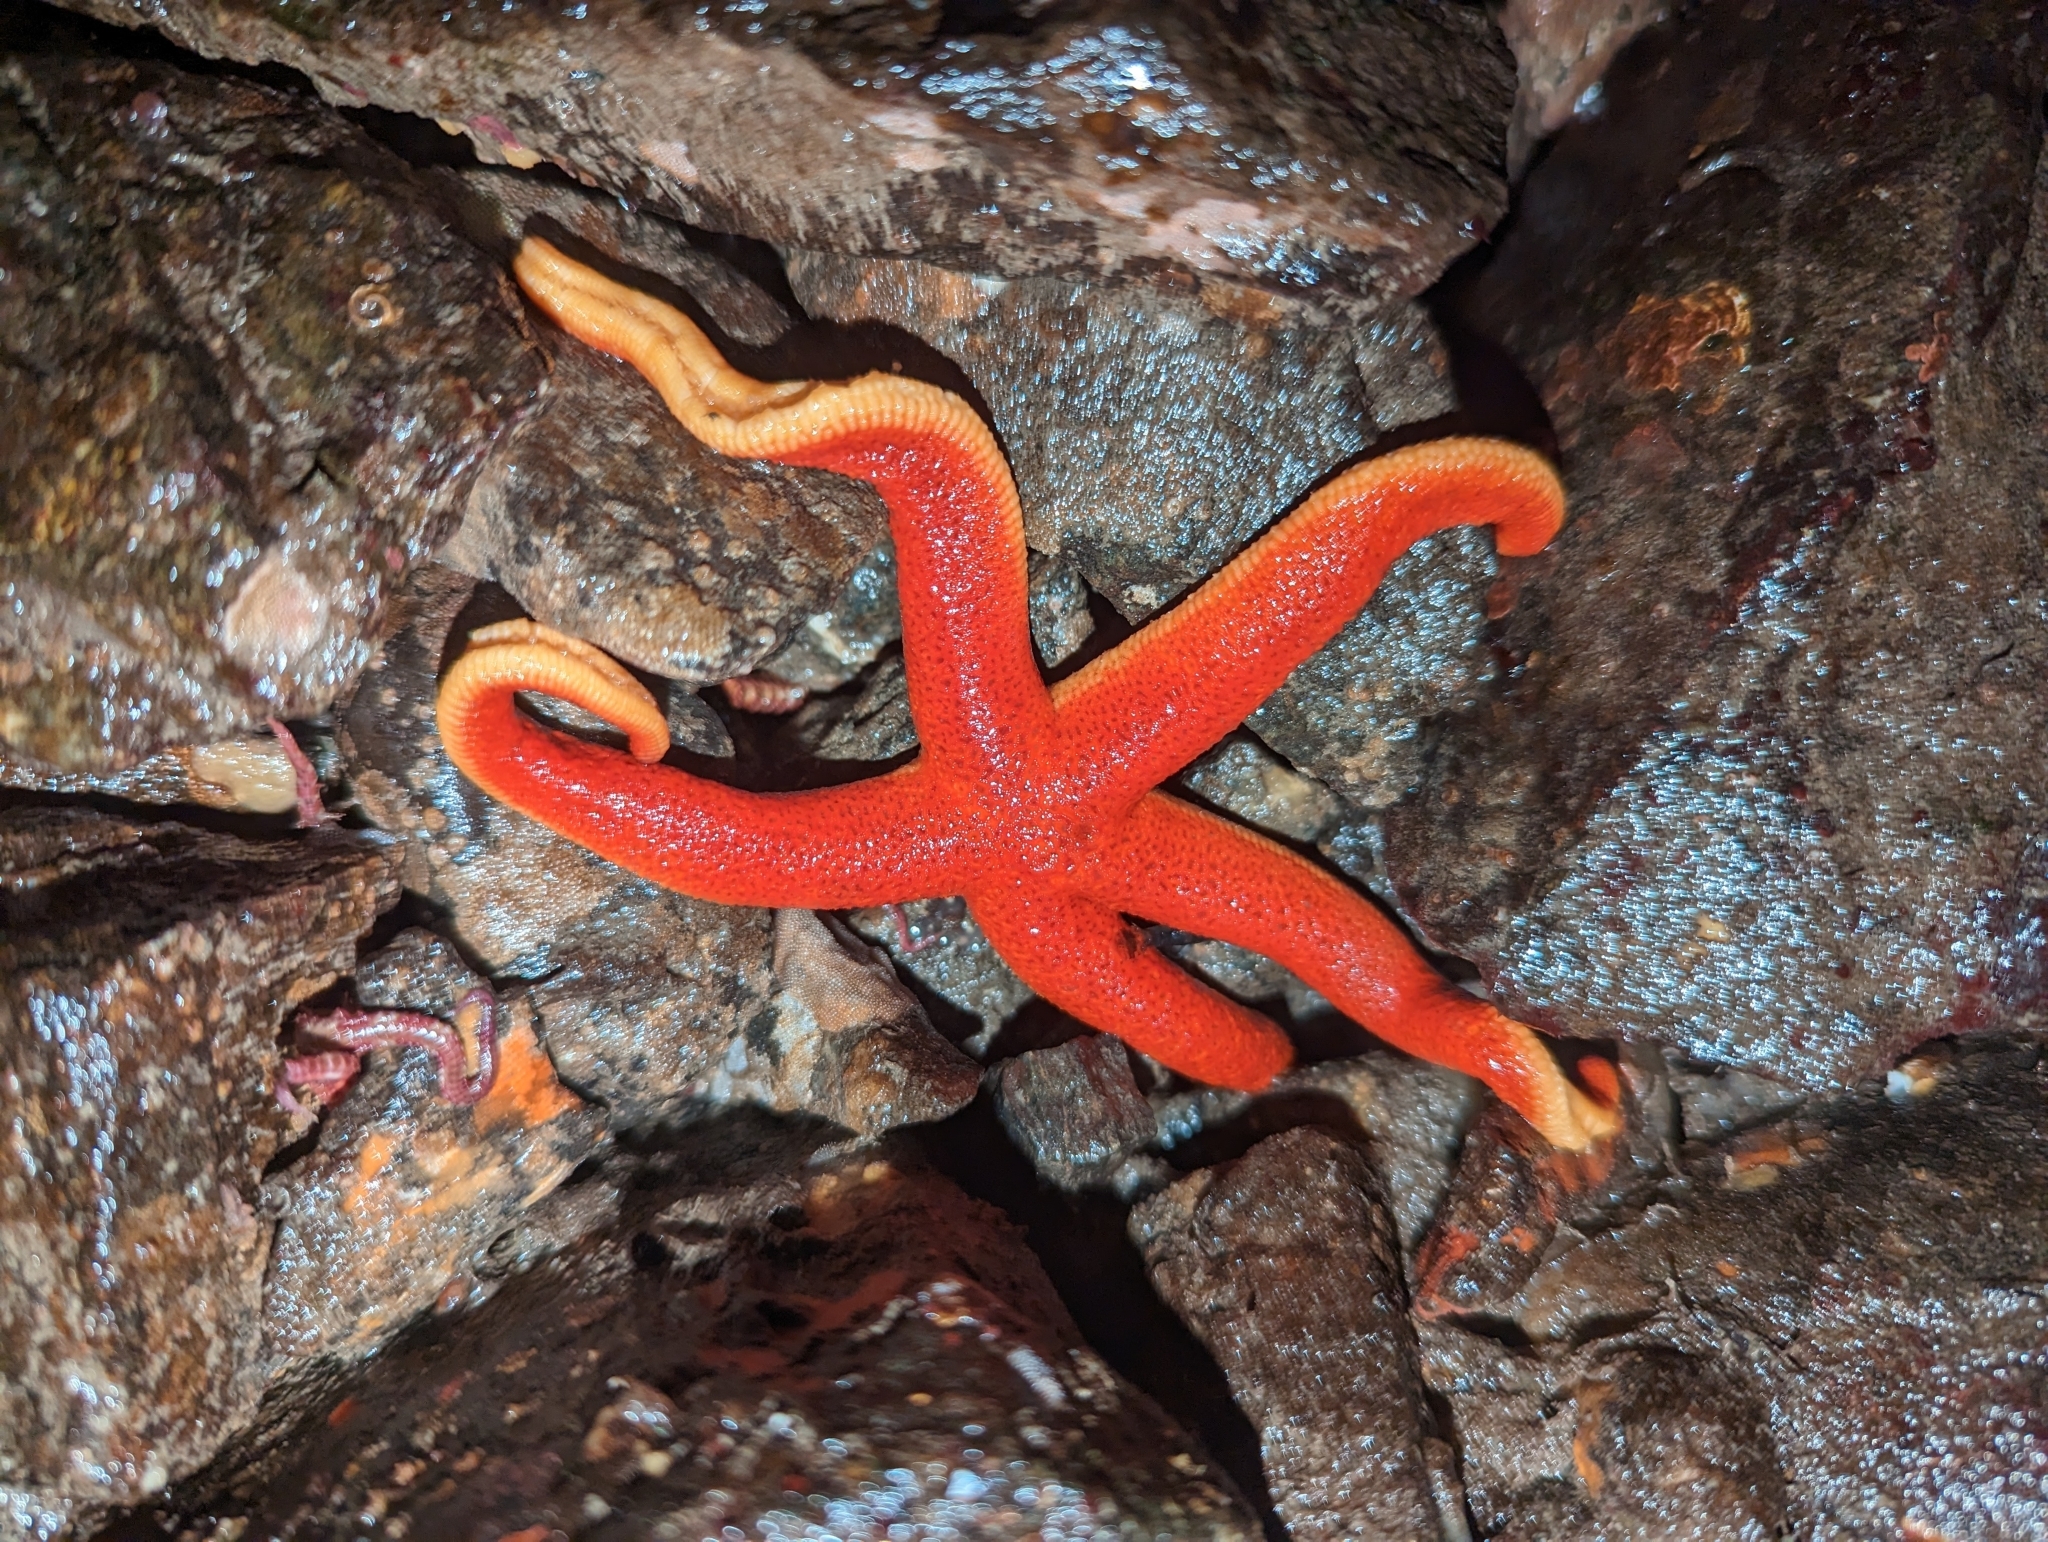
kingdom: Animalia
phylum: Echinodermata
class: Asteroidea
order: Spinulosida
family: Echinasteridae
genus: Henricia
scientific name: Henricia
